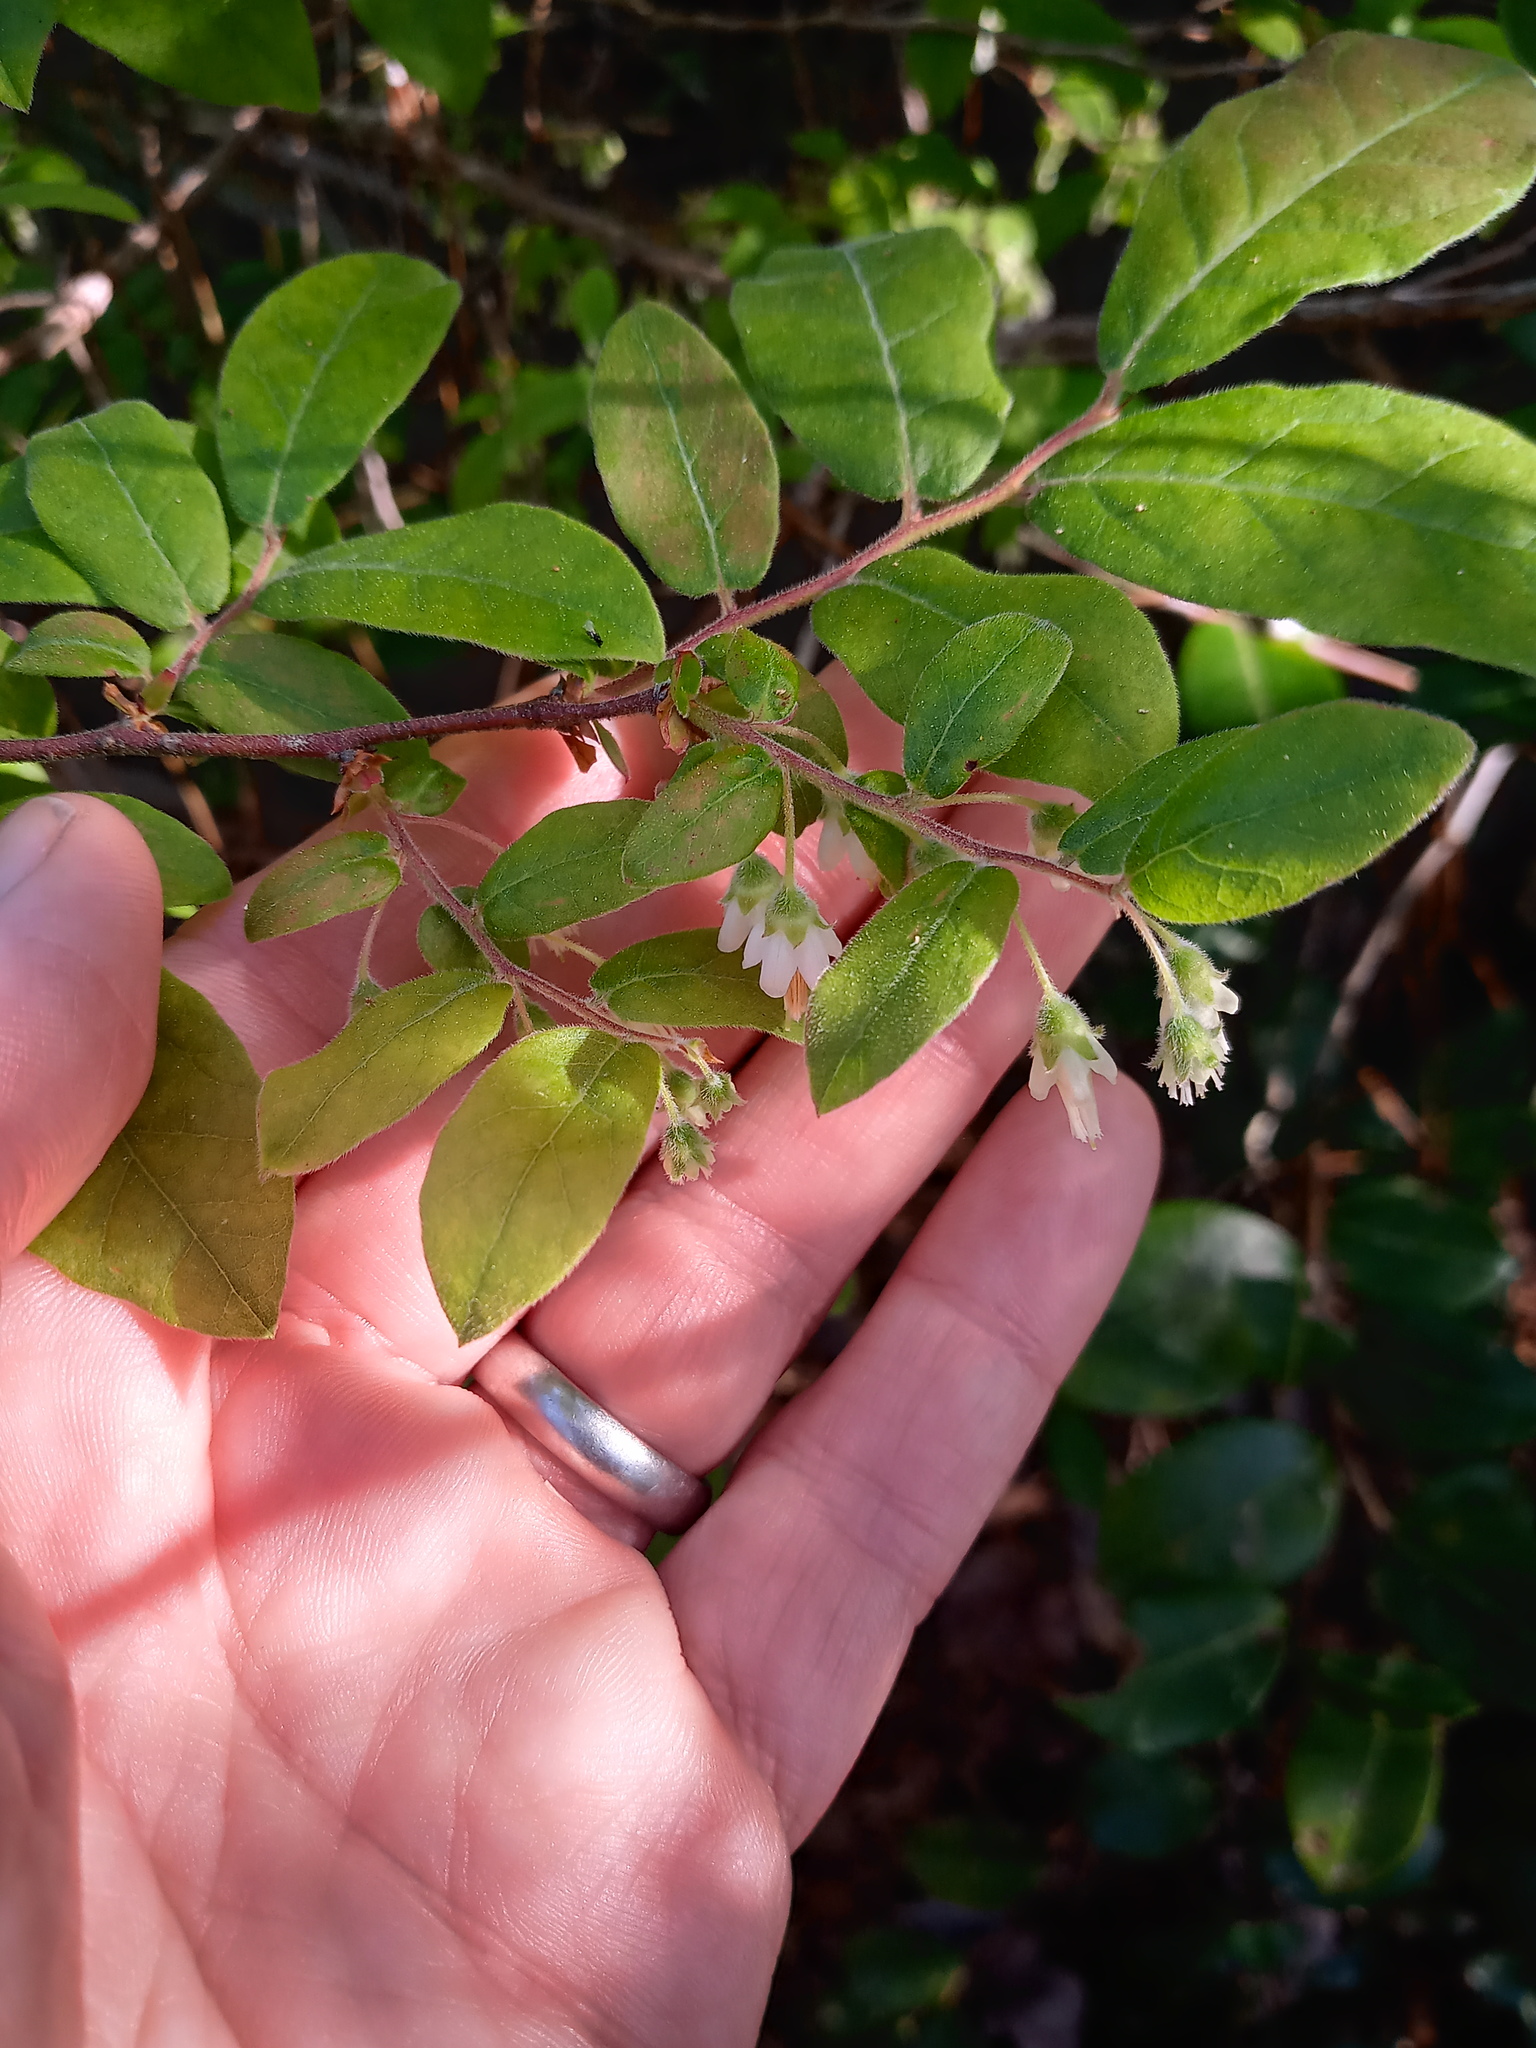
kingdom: Plantae
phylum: Tracheophyta
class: Magnoliopsida
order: Ericales
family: Ericaceae
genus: Vaccinium
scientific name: Vaccinium stamineum
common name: Deerberry
